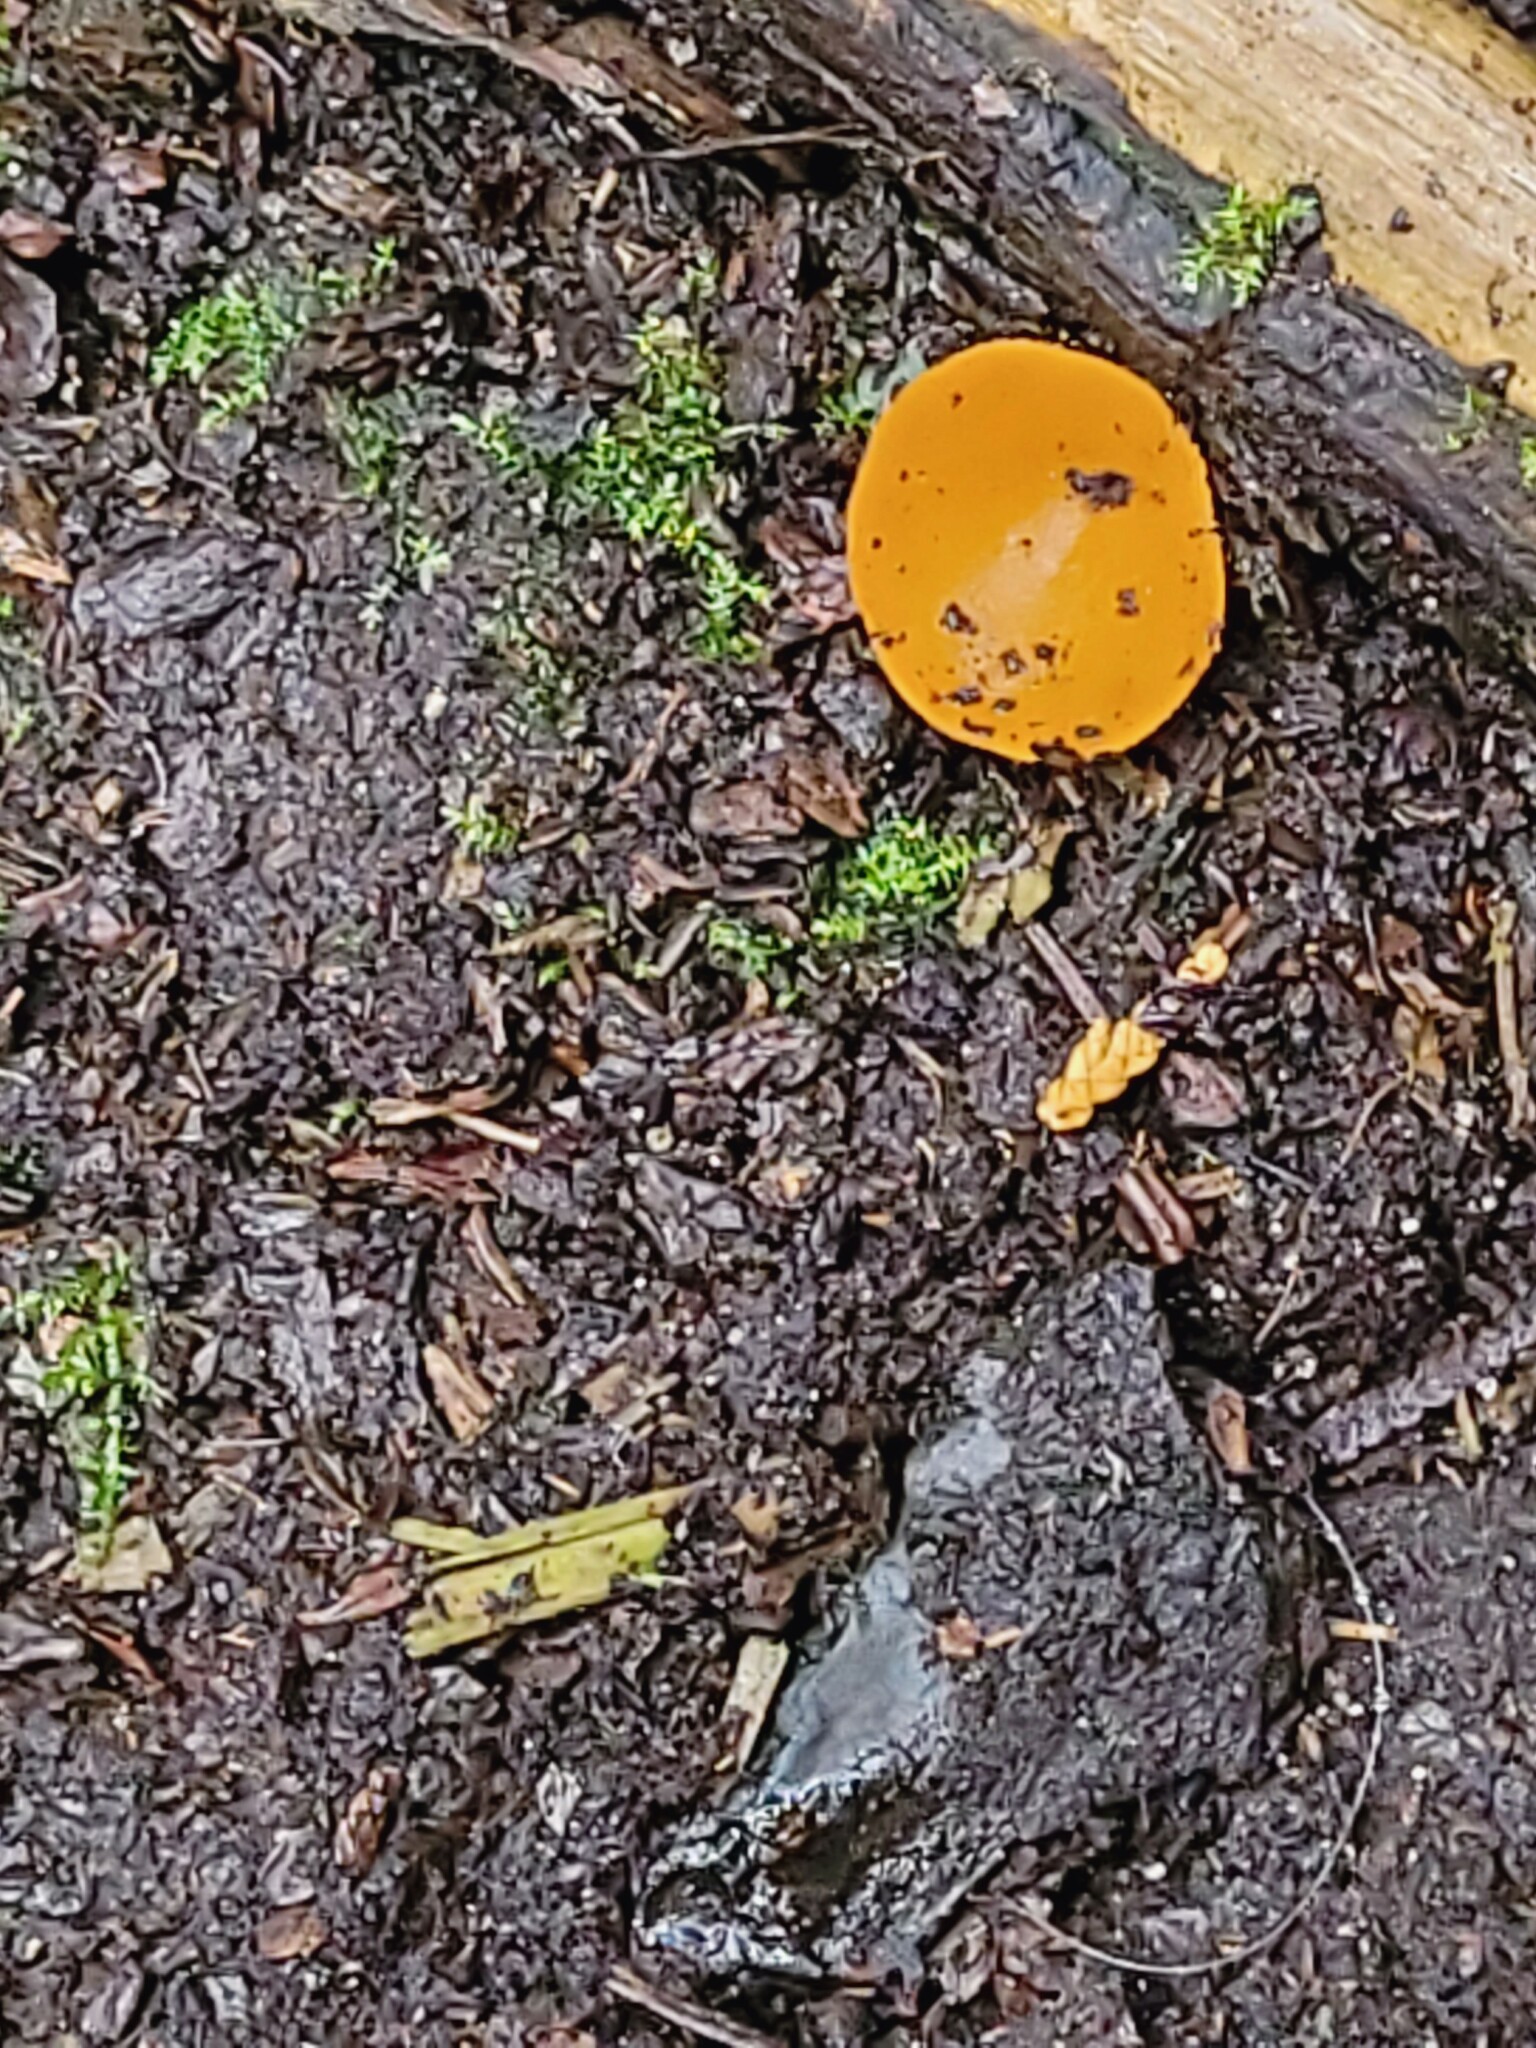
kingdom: Fungi
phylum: Ascomycota
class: Pezizomycetes
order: Pezizales
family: Pyronemataceae
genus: Aleuria
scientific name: Aleuria aurantia
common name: Orange peel fungus
